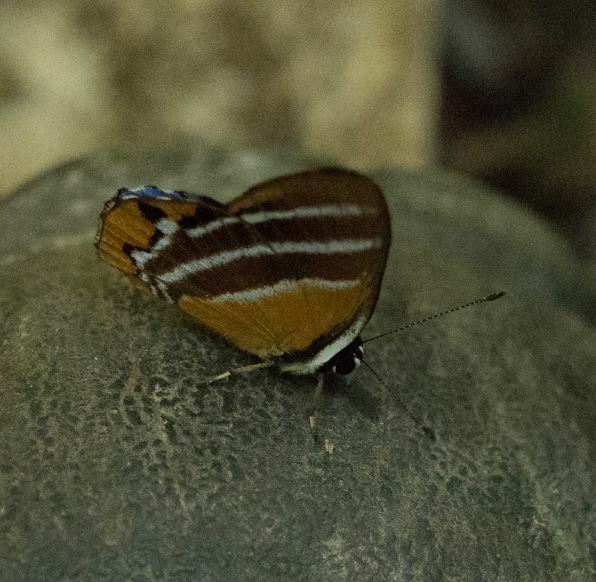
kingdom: Animalia
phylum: Arthropoda
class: Insecta
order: Lepidoptera
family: Lycaenidae
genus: Euselasia
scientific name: Euselasia euriteus
